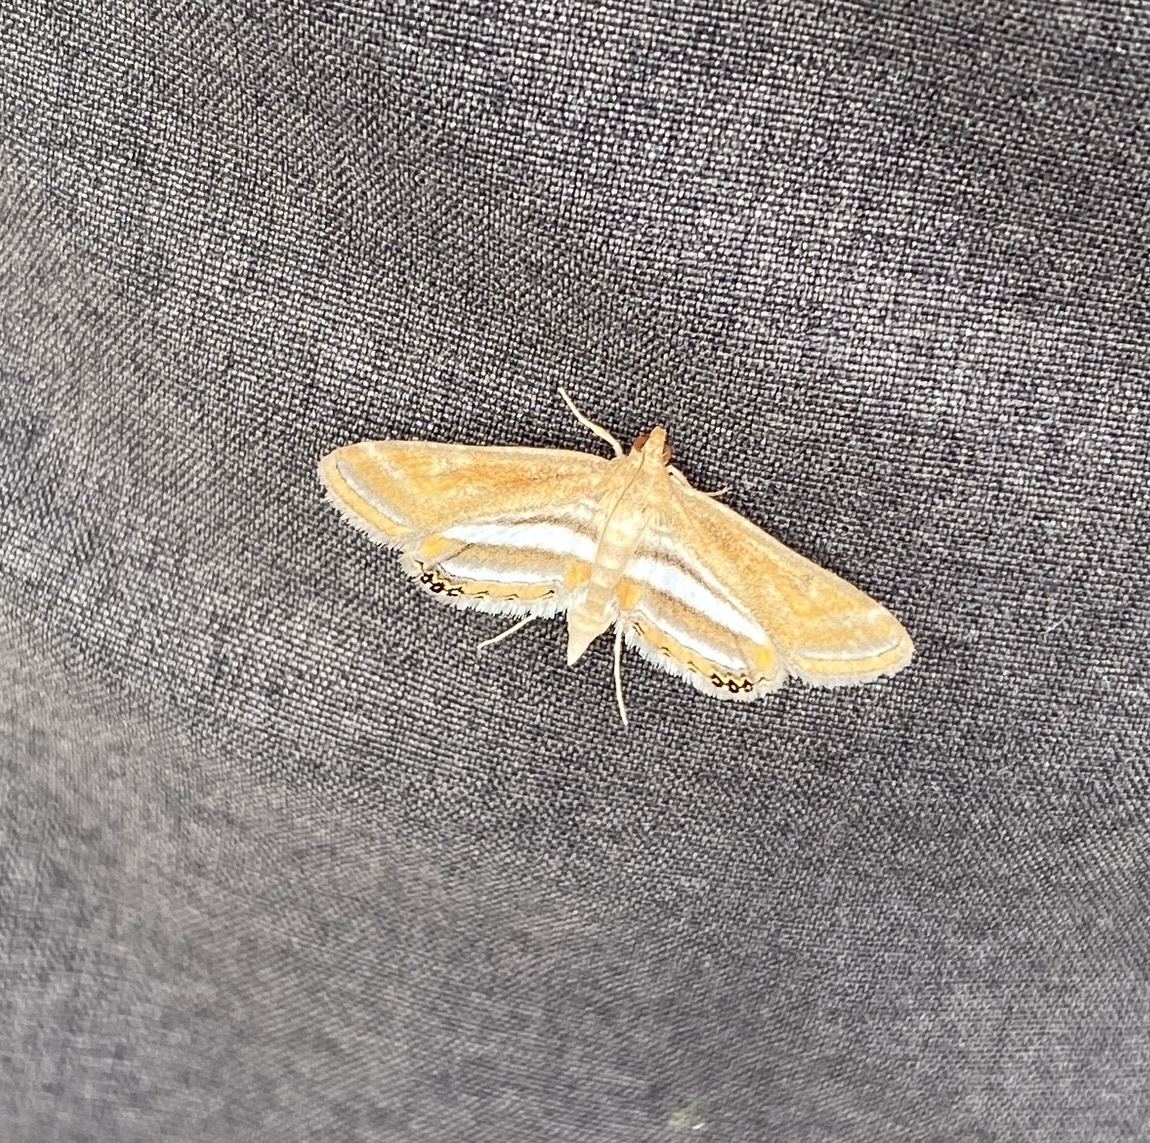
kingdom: Animalia
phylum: Arthropoda
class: Insecta
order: Lepidoptera
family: Crambidae
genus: Parapoynx
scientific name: Parapoynx seminealis
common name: Floating-heart waterlily leafcutter
